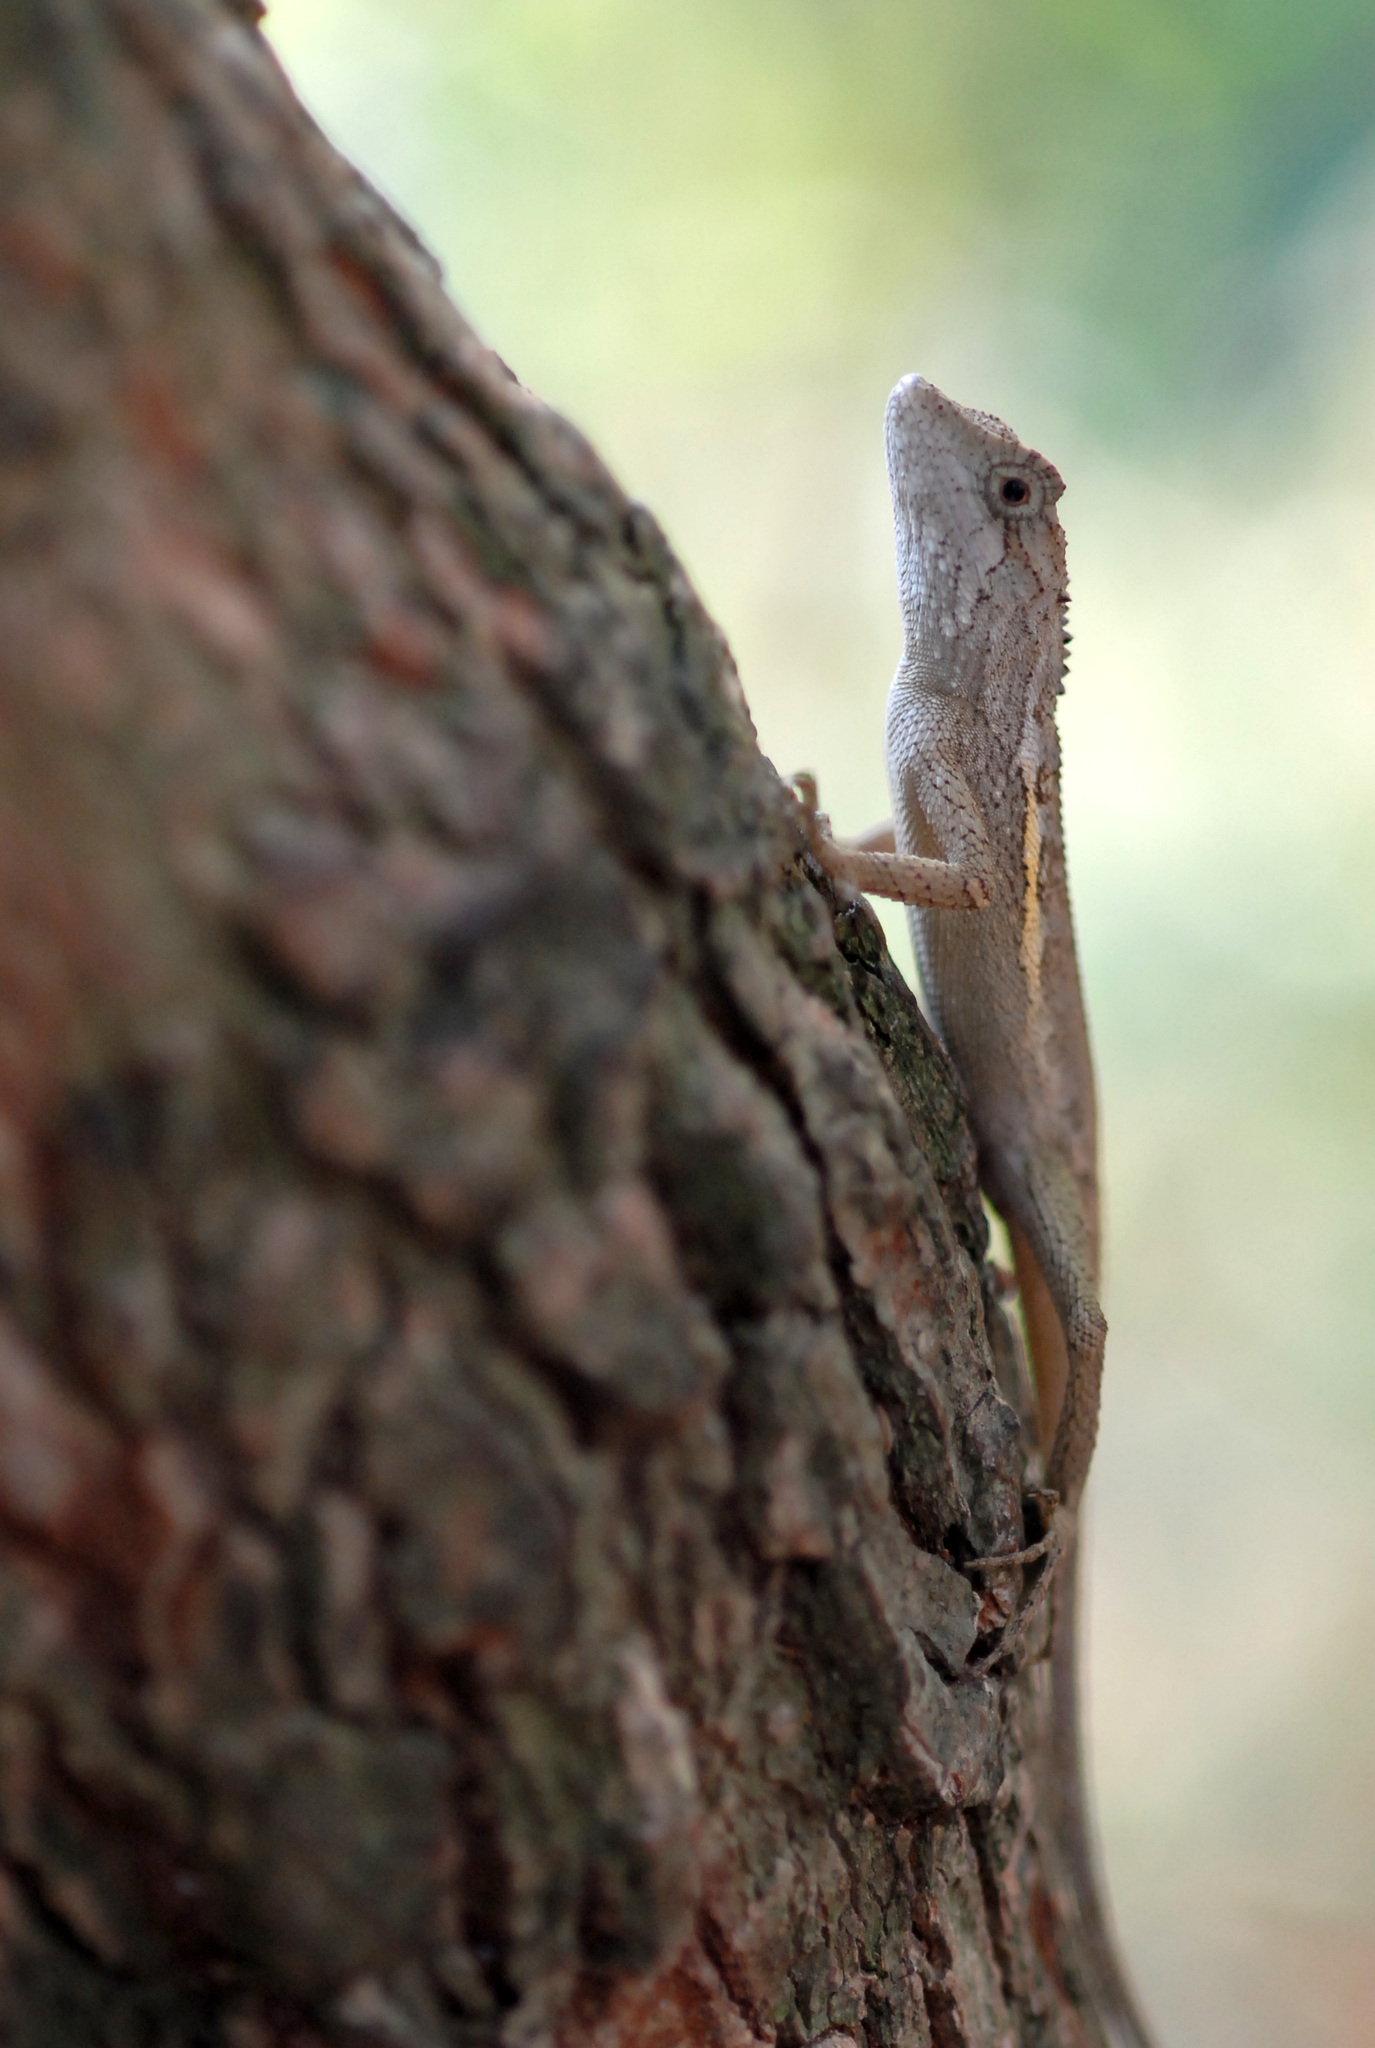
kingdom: Animalia
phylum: Chordata
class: Squamata
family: Agamidae
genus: Diploderma
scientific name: Diploderma swinhonis
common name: Taiwan japalure
